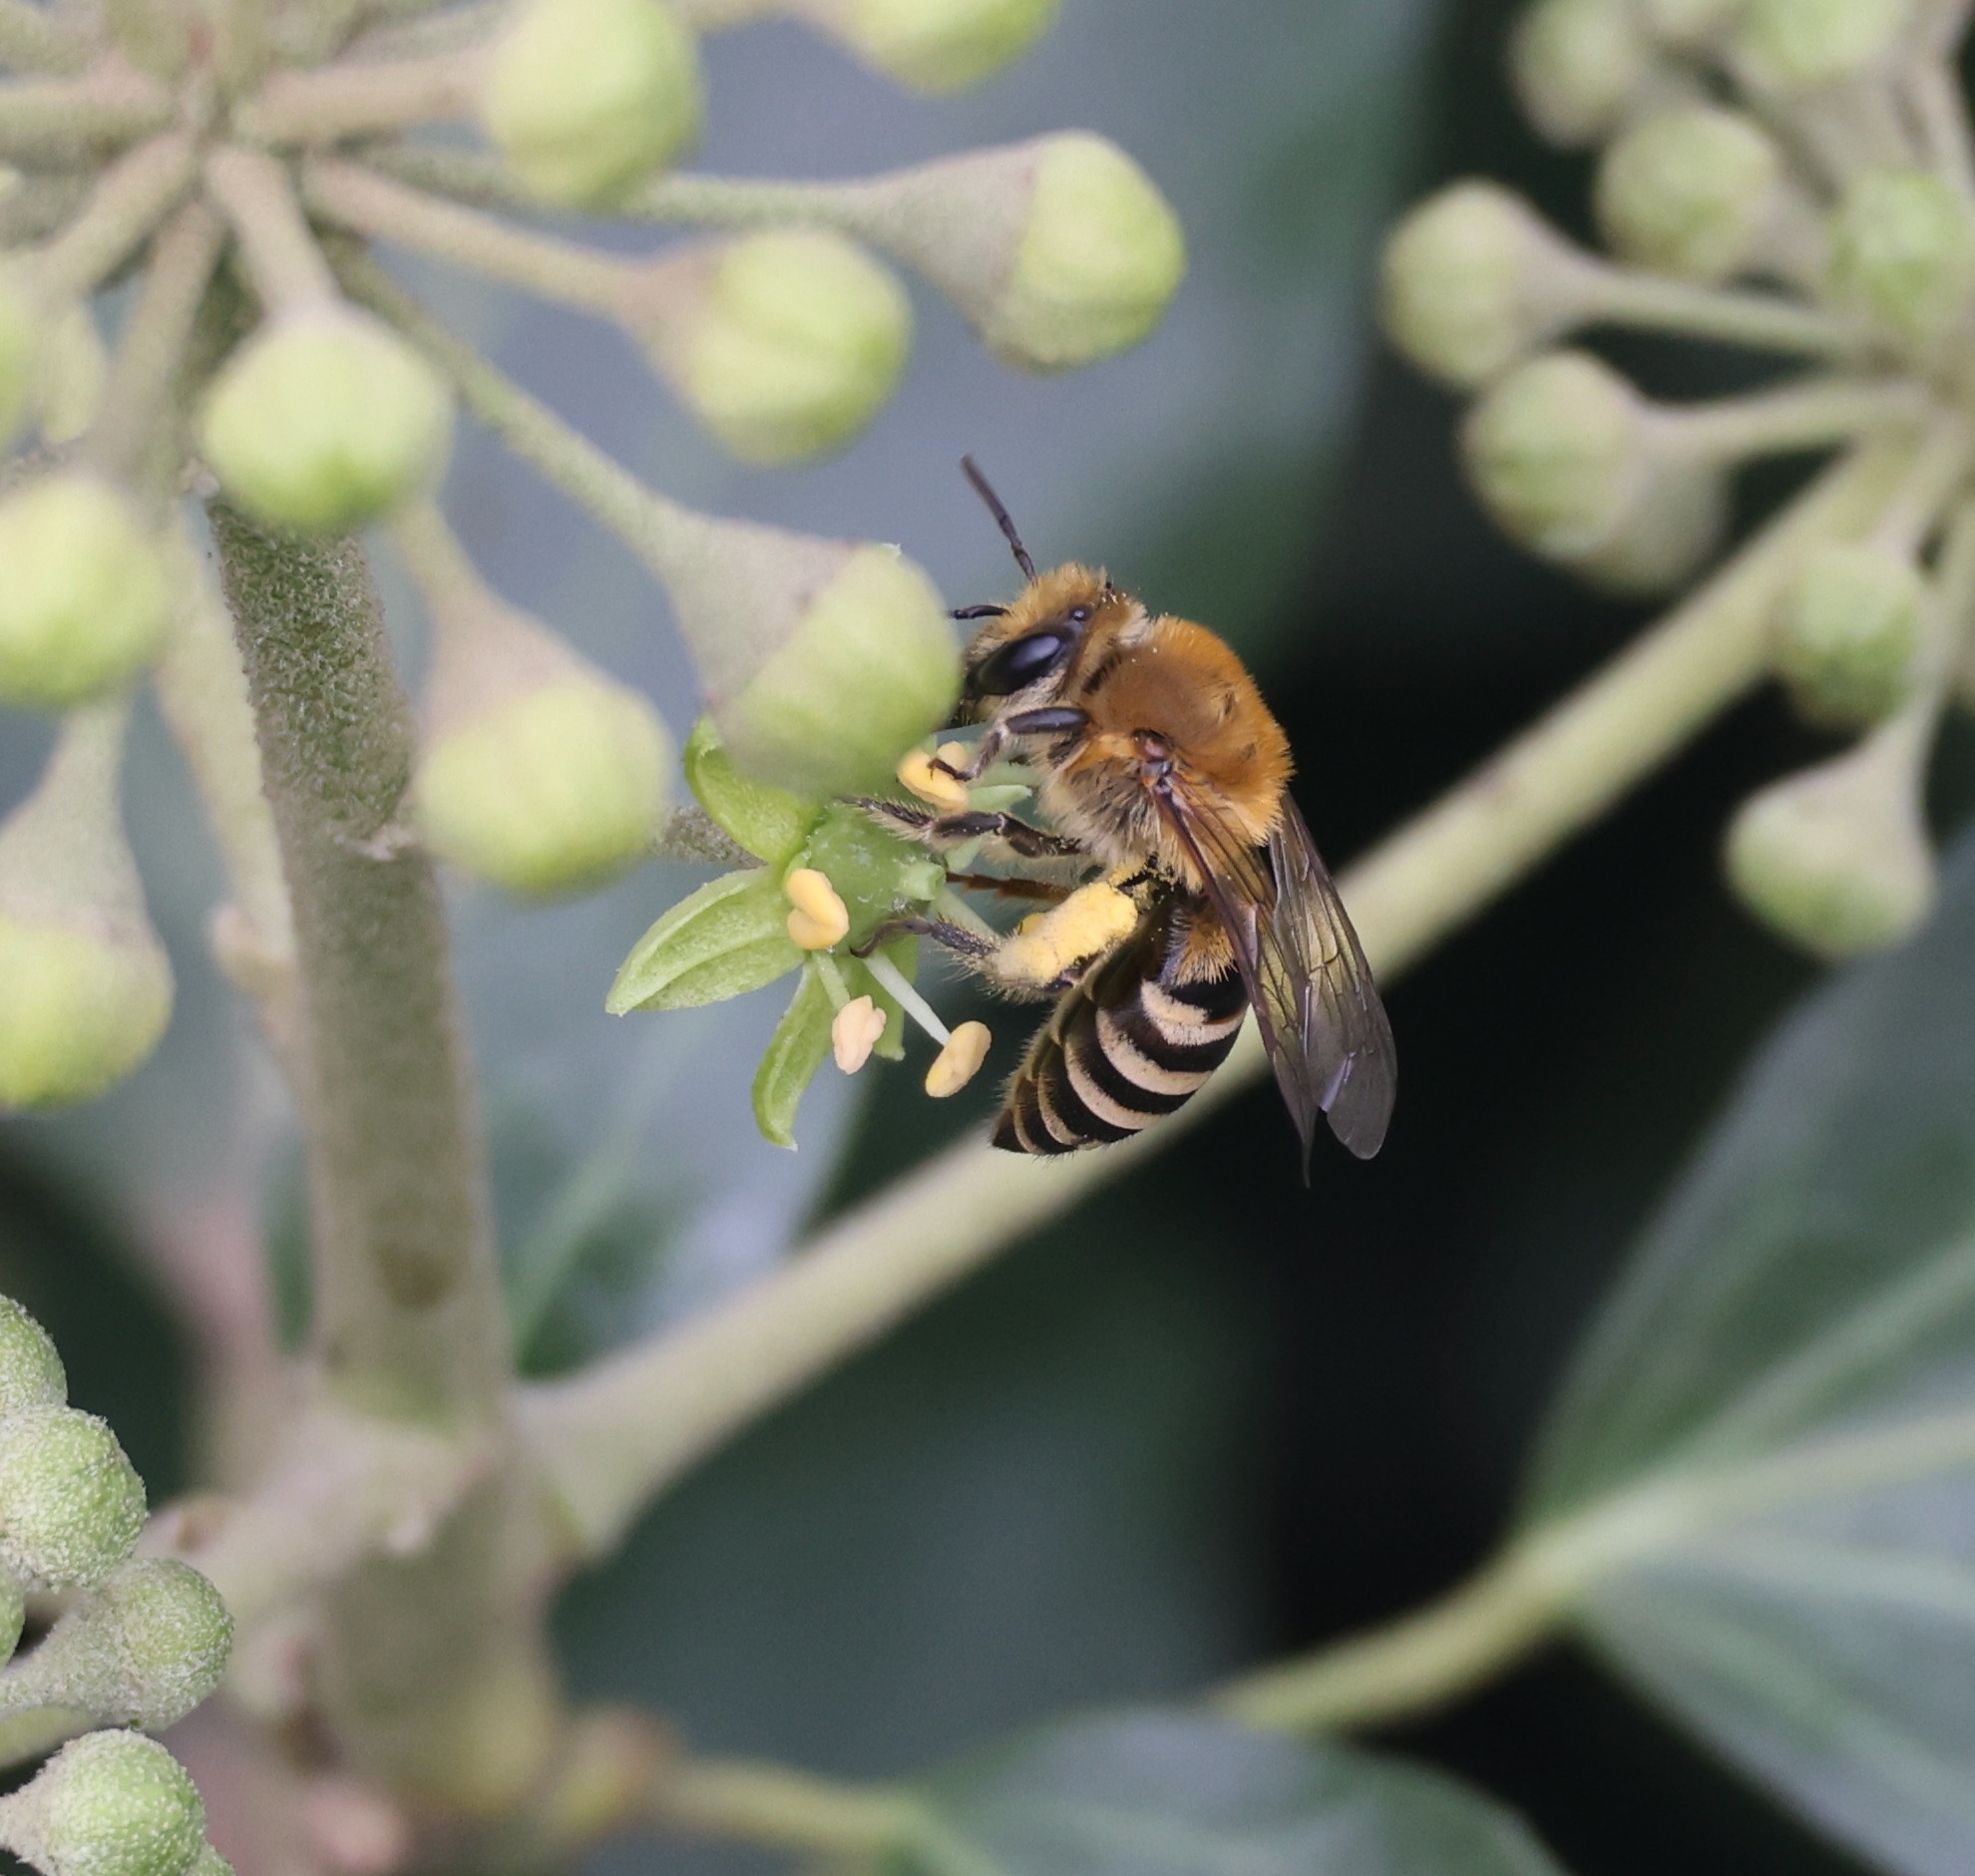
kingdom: Animalia
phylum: Arthropoda
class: Insecta
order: Hymenoptera
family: Colletidae
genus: Colletes
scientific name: Colletes hederae
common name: Ivy bee
